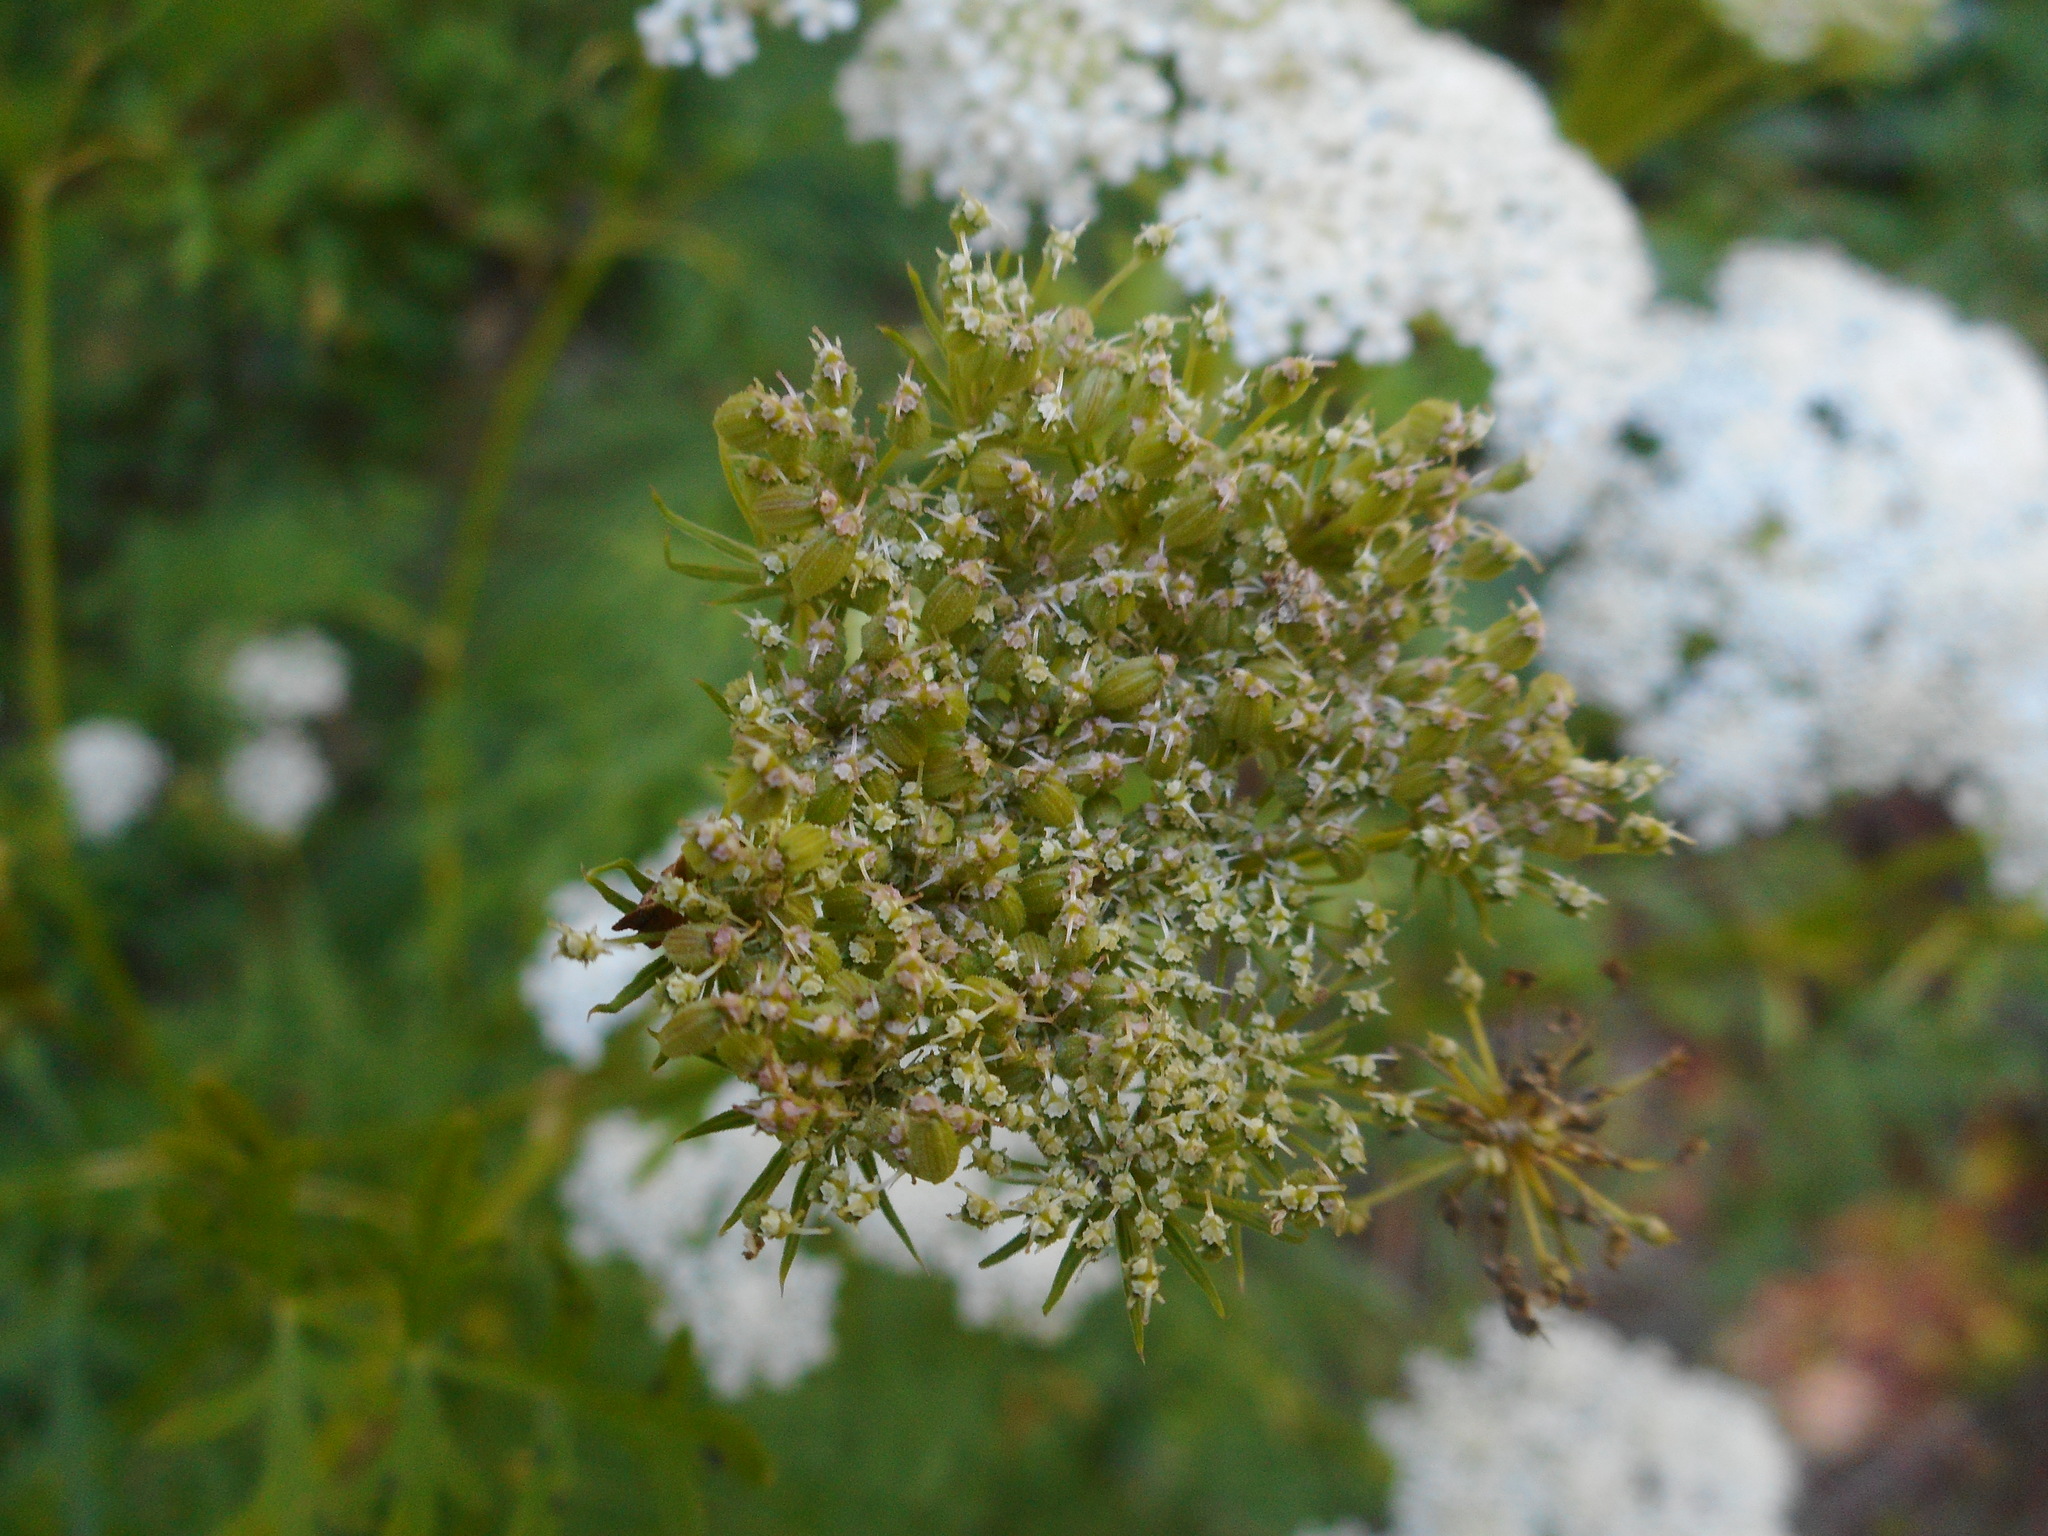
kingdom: Plantae
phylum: Tracheophyta
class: Magnoliopsida
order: Apiales
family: Apiaceae
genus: Seseli
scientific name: Seseli seseloides
